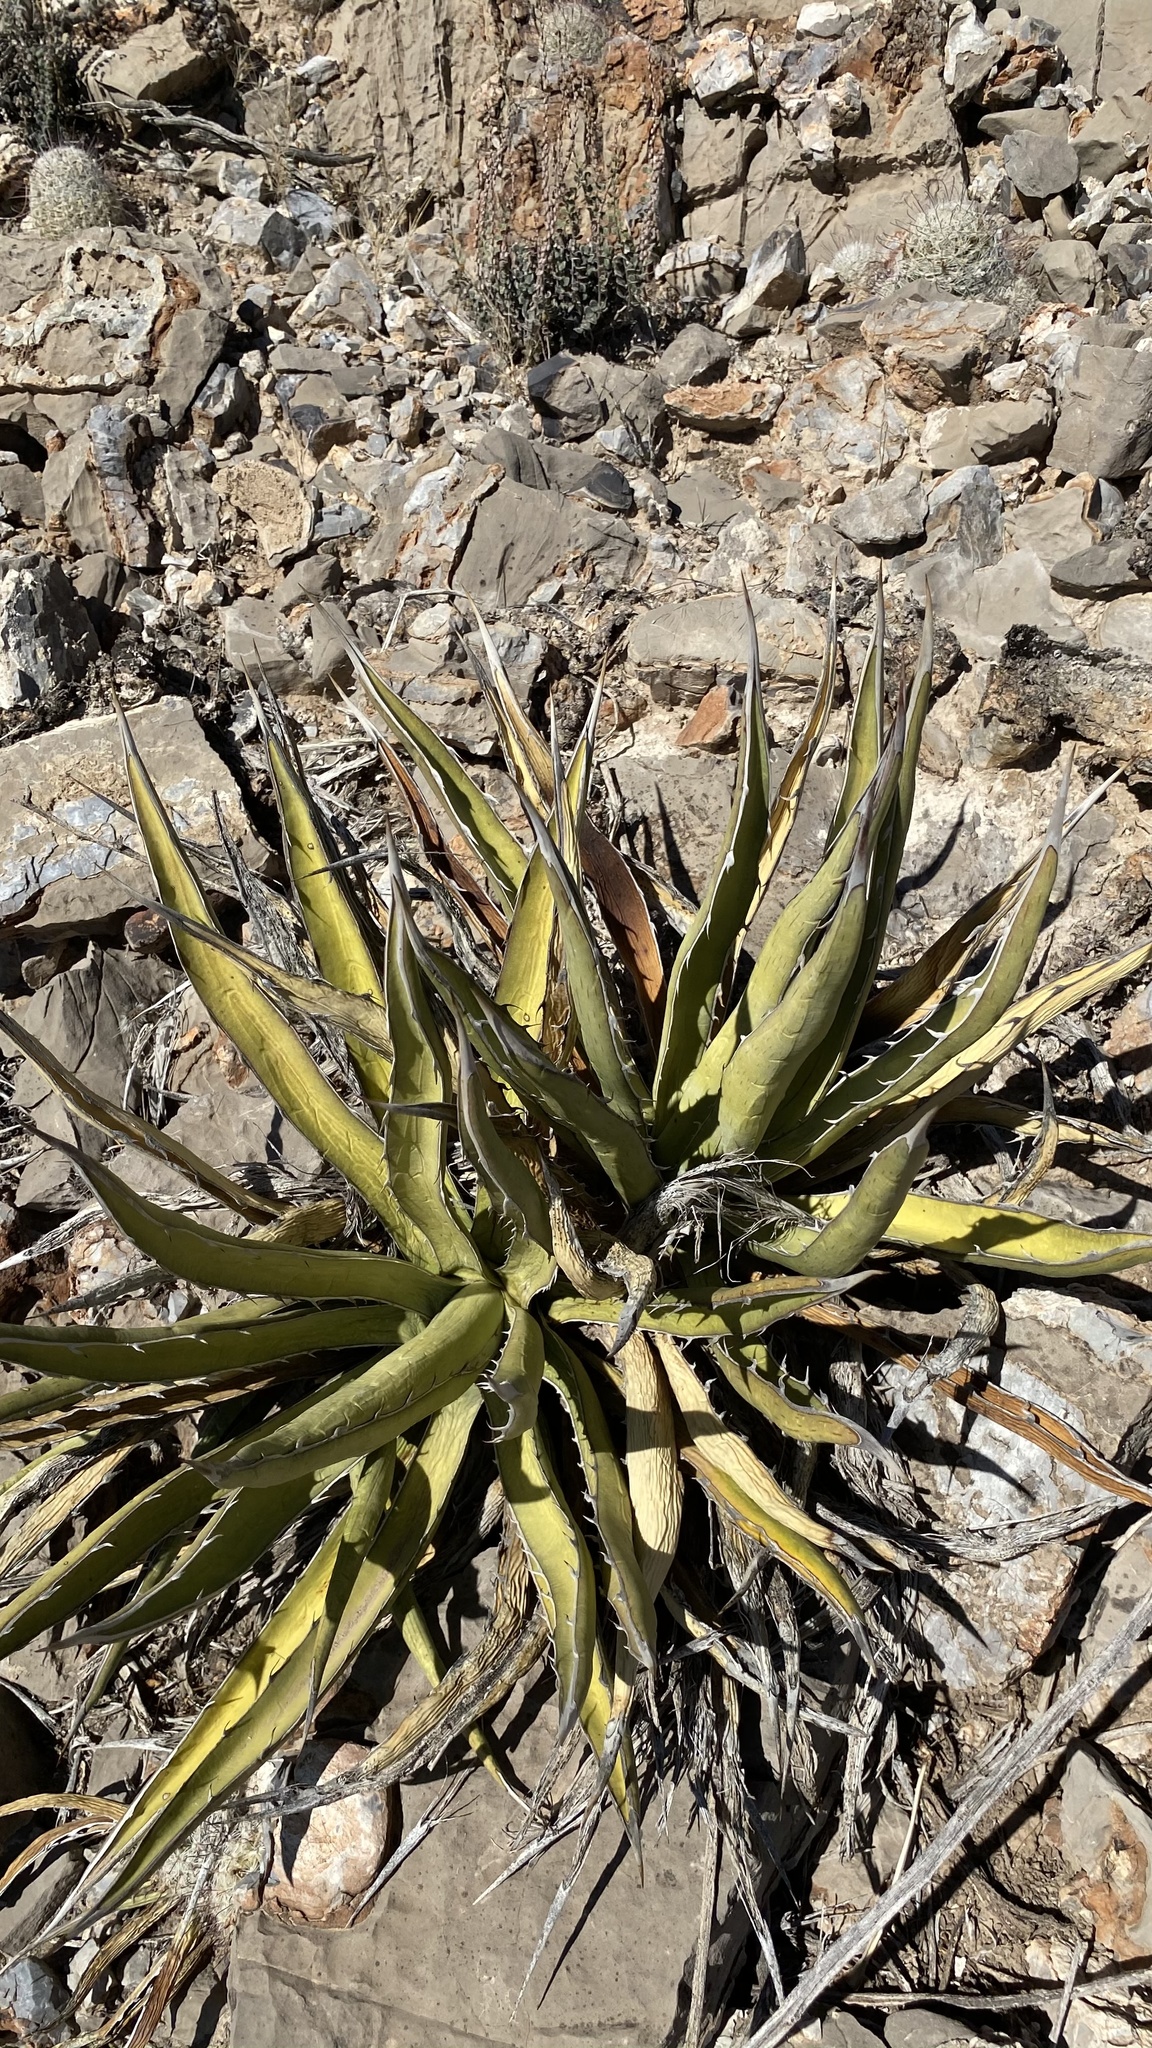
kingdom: Plantae
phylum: Tracheophyta
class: Liliopsida
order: Asparagales
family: Asparagaceae
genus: Agave
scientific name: Agave lechuguilla
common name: Lecheguilla agave
